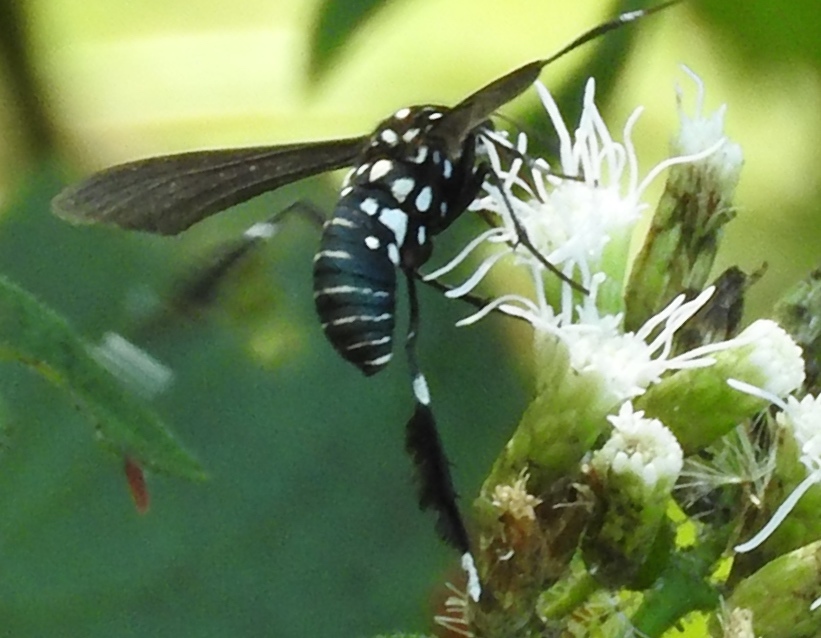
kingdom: Animalia
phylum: Arthropoda
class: Insecta
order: Lepidoptera
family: Erebidae
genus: Horama
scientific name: Horama plumipes
